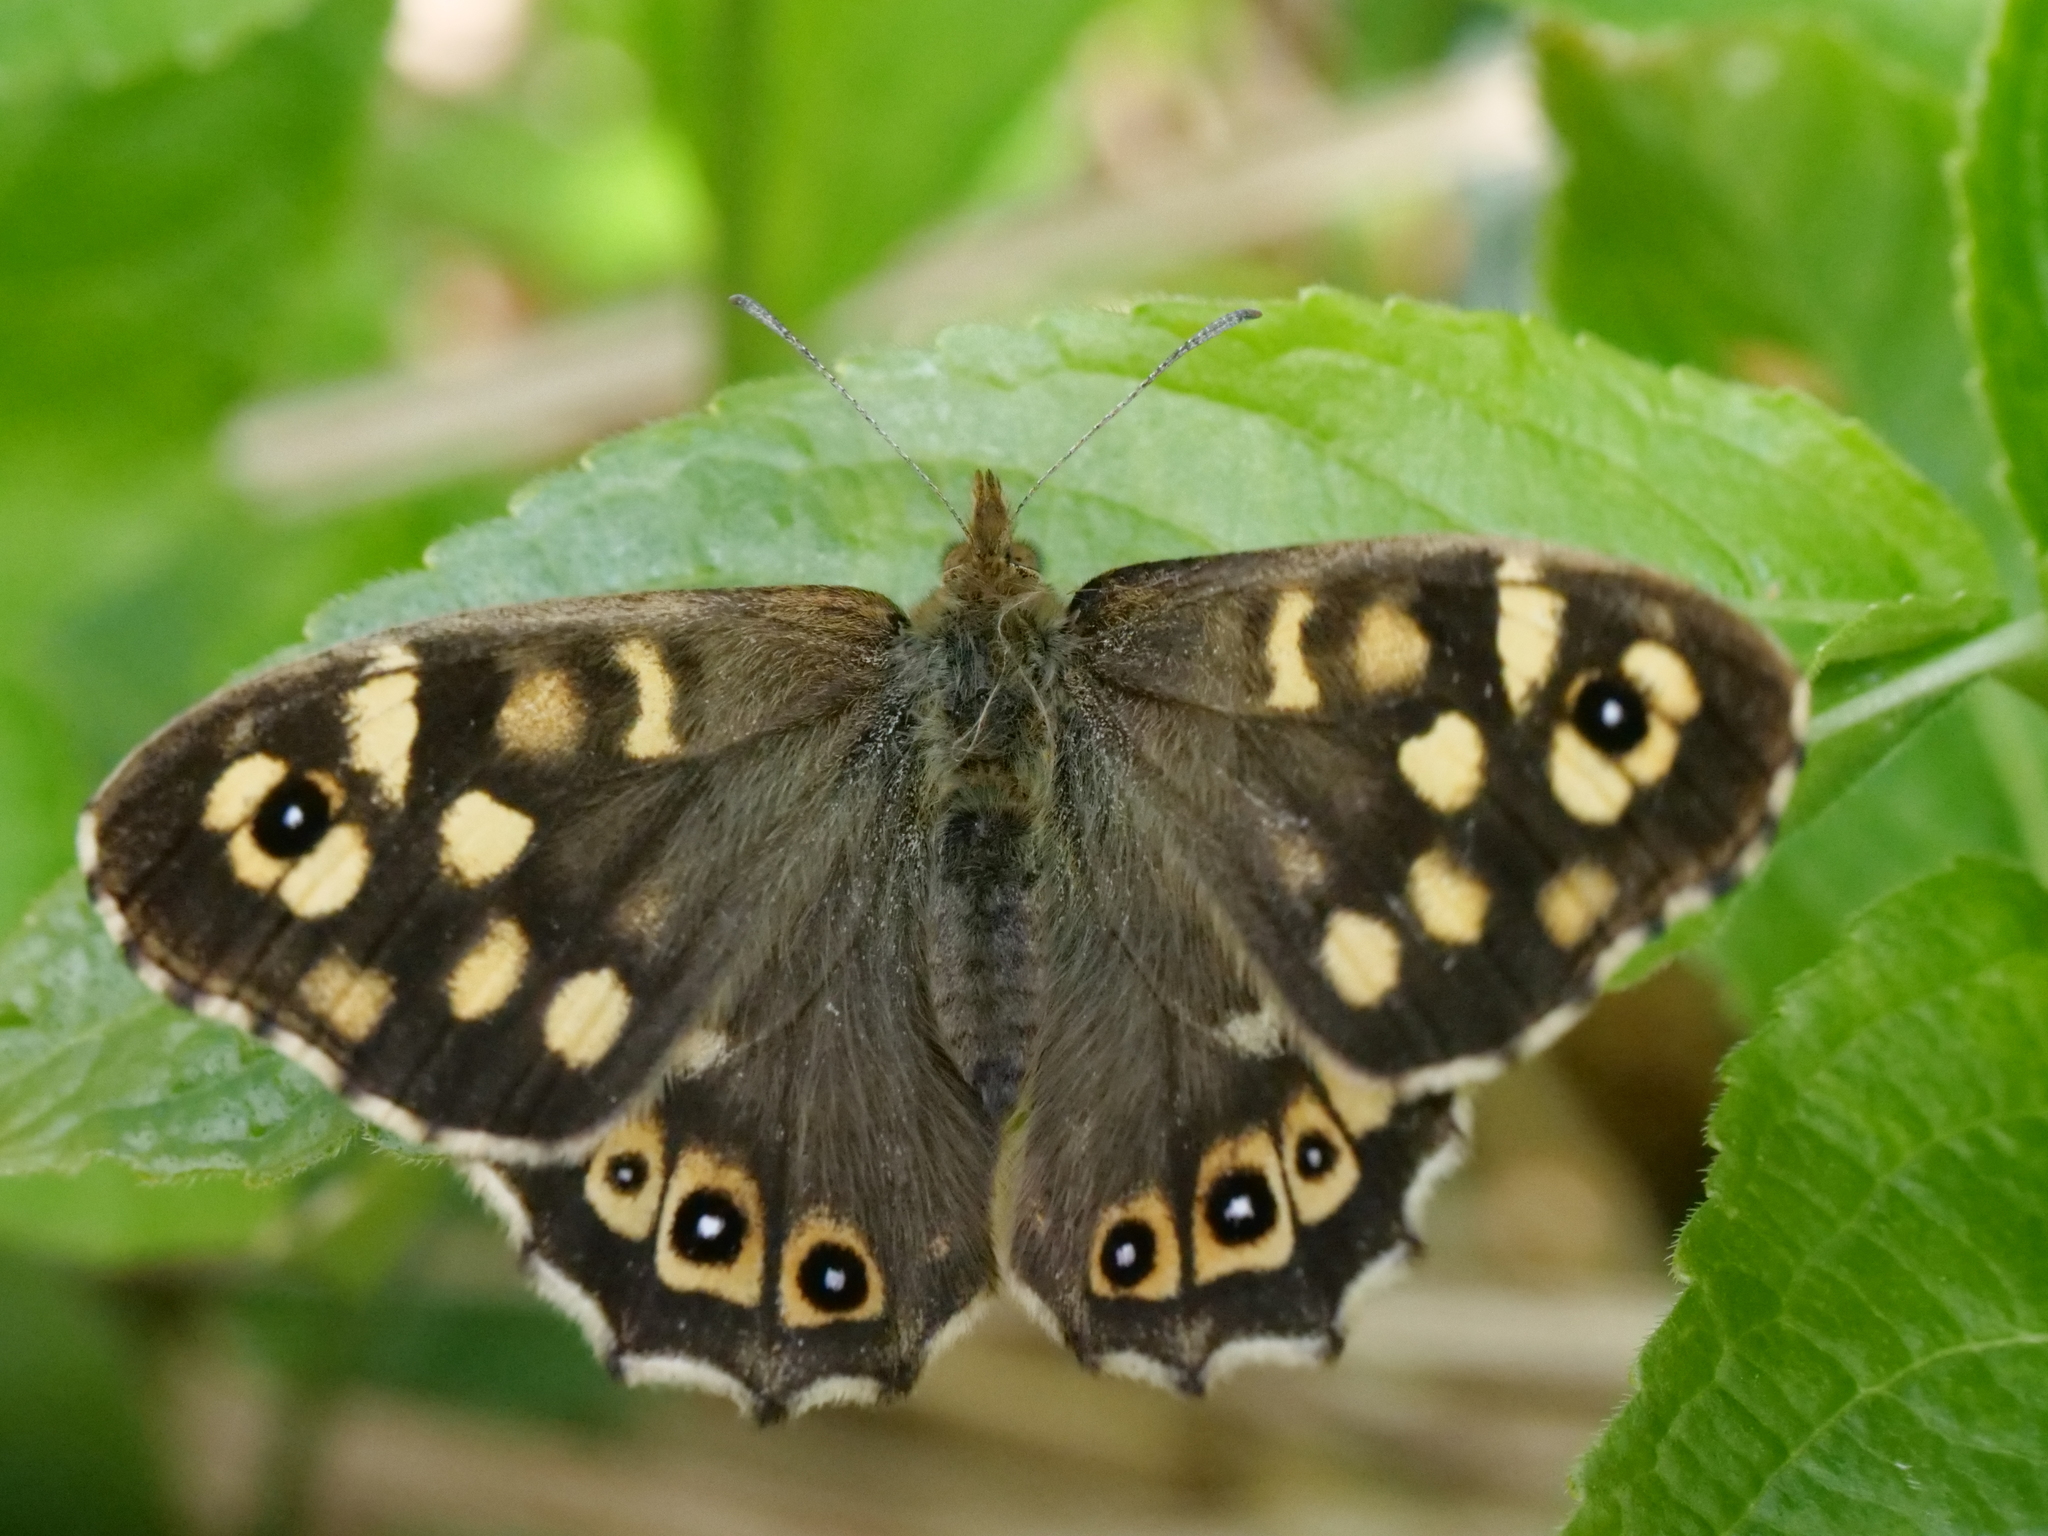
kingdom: Animalia
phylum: Arthropoda
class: Insecta
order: Lepidoptera
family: Nymphalidae
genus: Pararge
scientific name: Pararge aegeria
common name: Speckled wood
